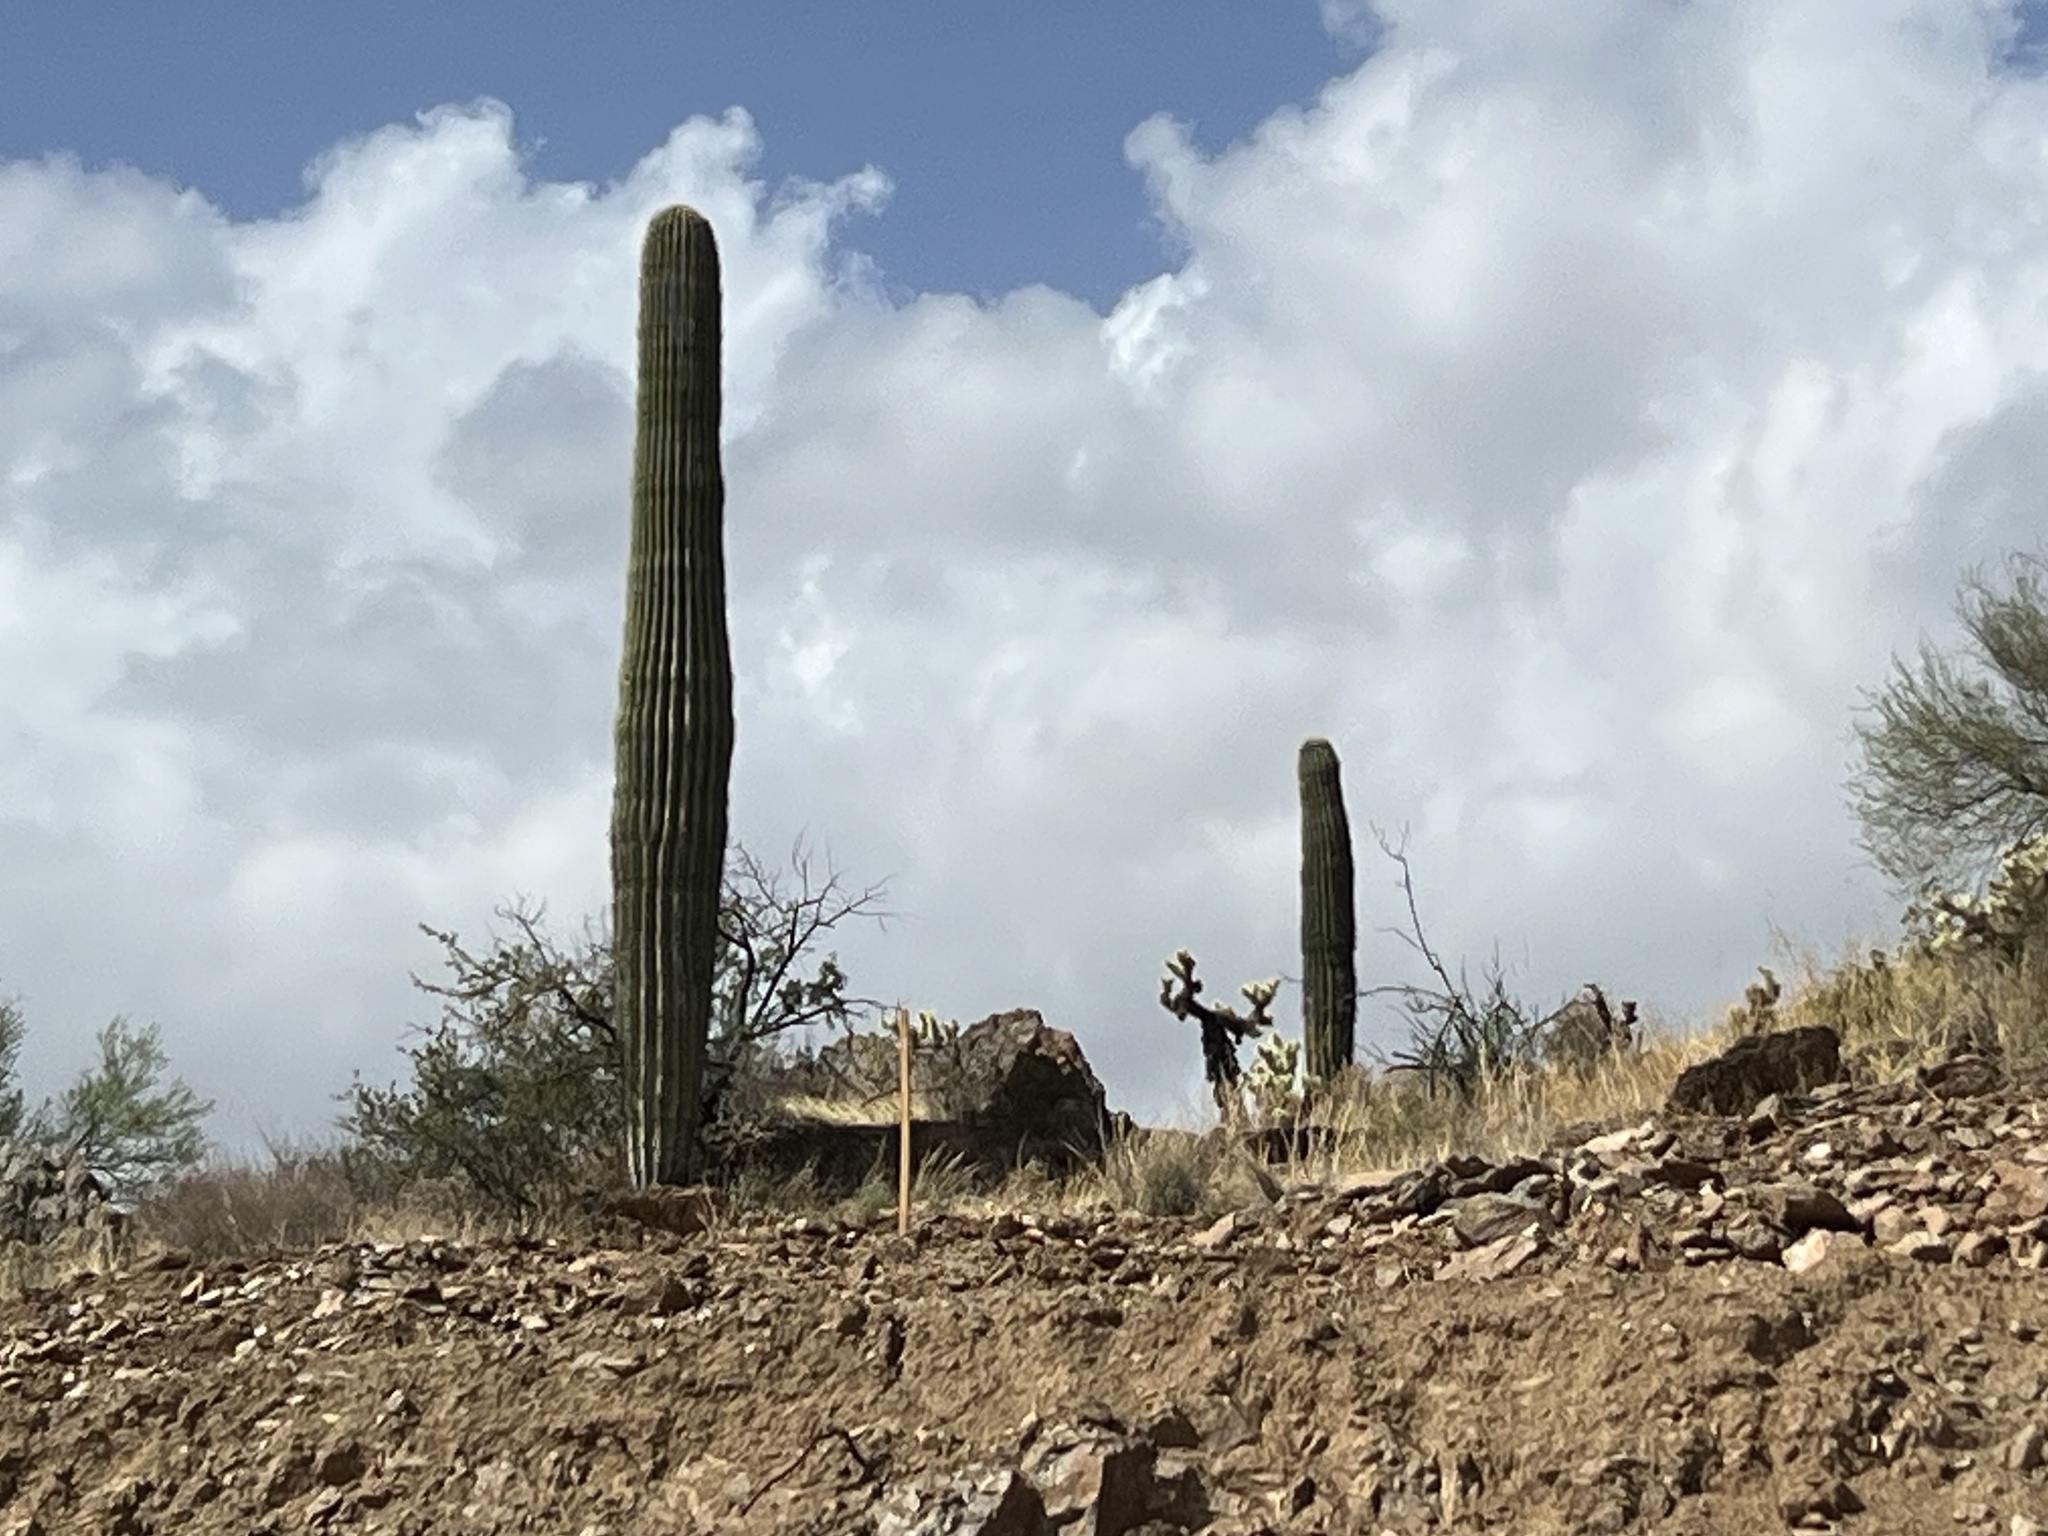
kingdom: Plantae
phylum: Tracheophyta
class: Magnoliopsida
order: Caryophyllales
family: Cactaceae
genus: Carnegiea
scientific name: Carnegiea gigantea
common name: Saguaro
